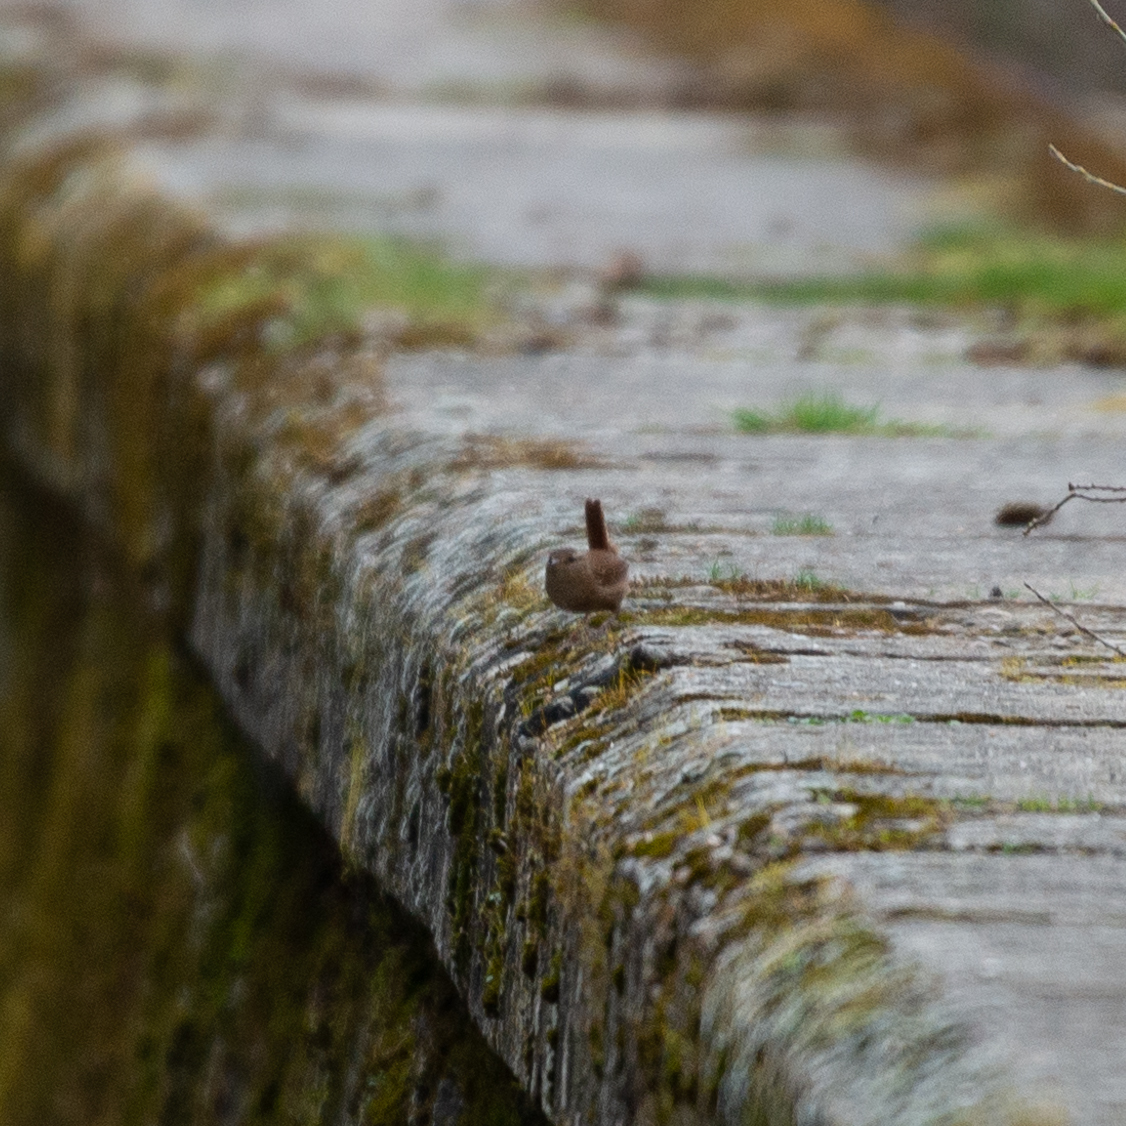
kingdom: Animalia
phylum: Chordata
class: Aves
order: Passeriformes
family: Troglodytidae
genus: Troglodytes
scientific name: Troglodytes troglodytes
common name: Eurasian wren
